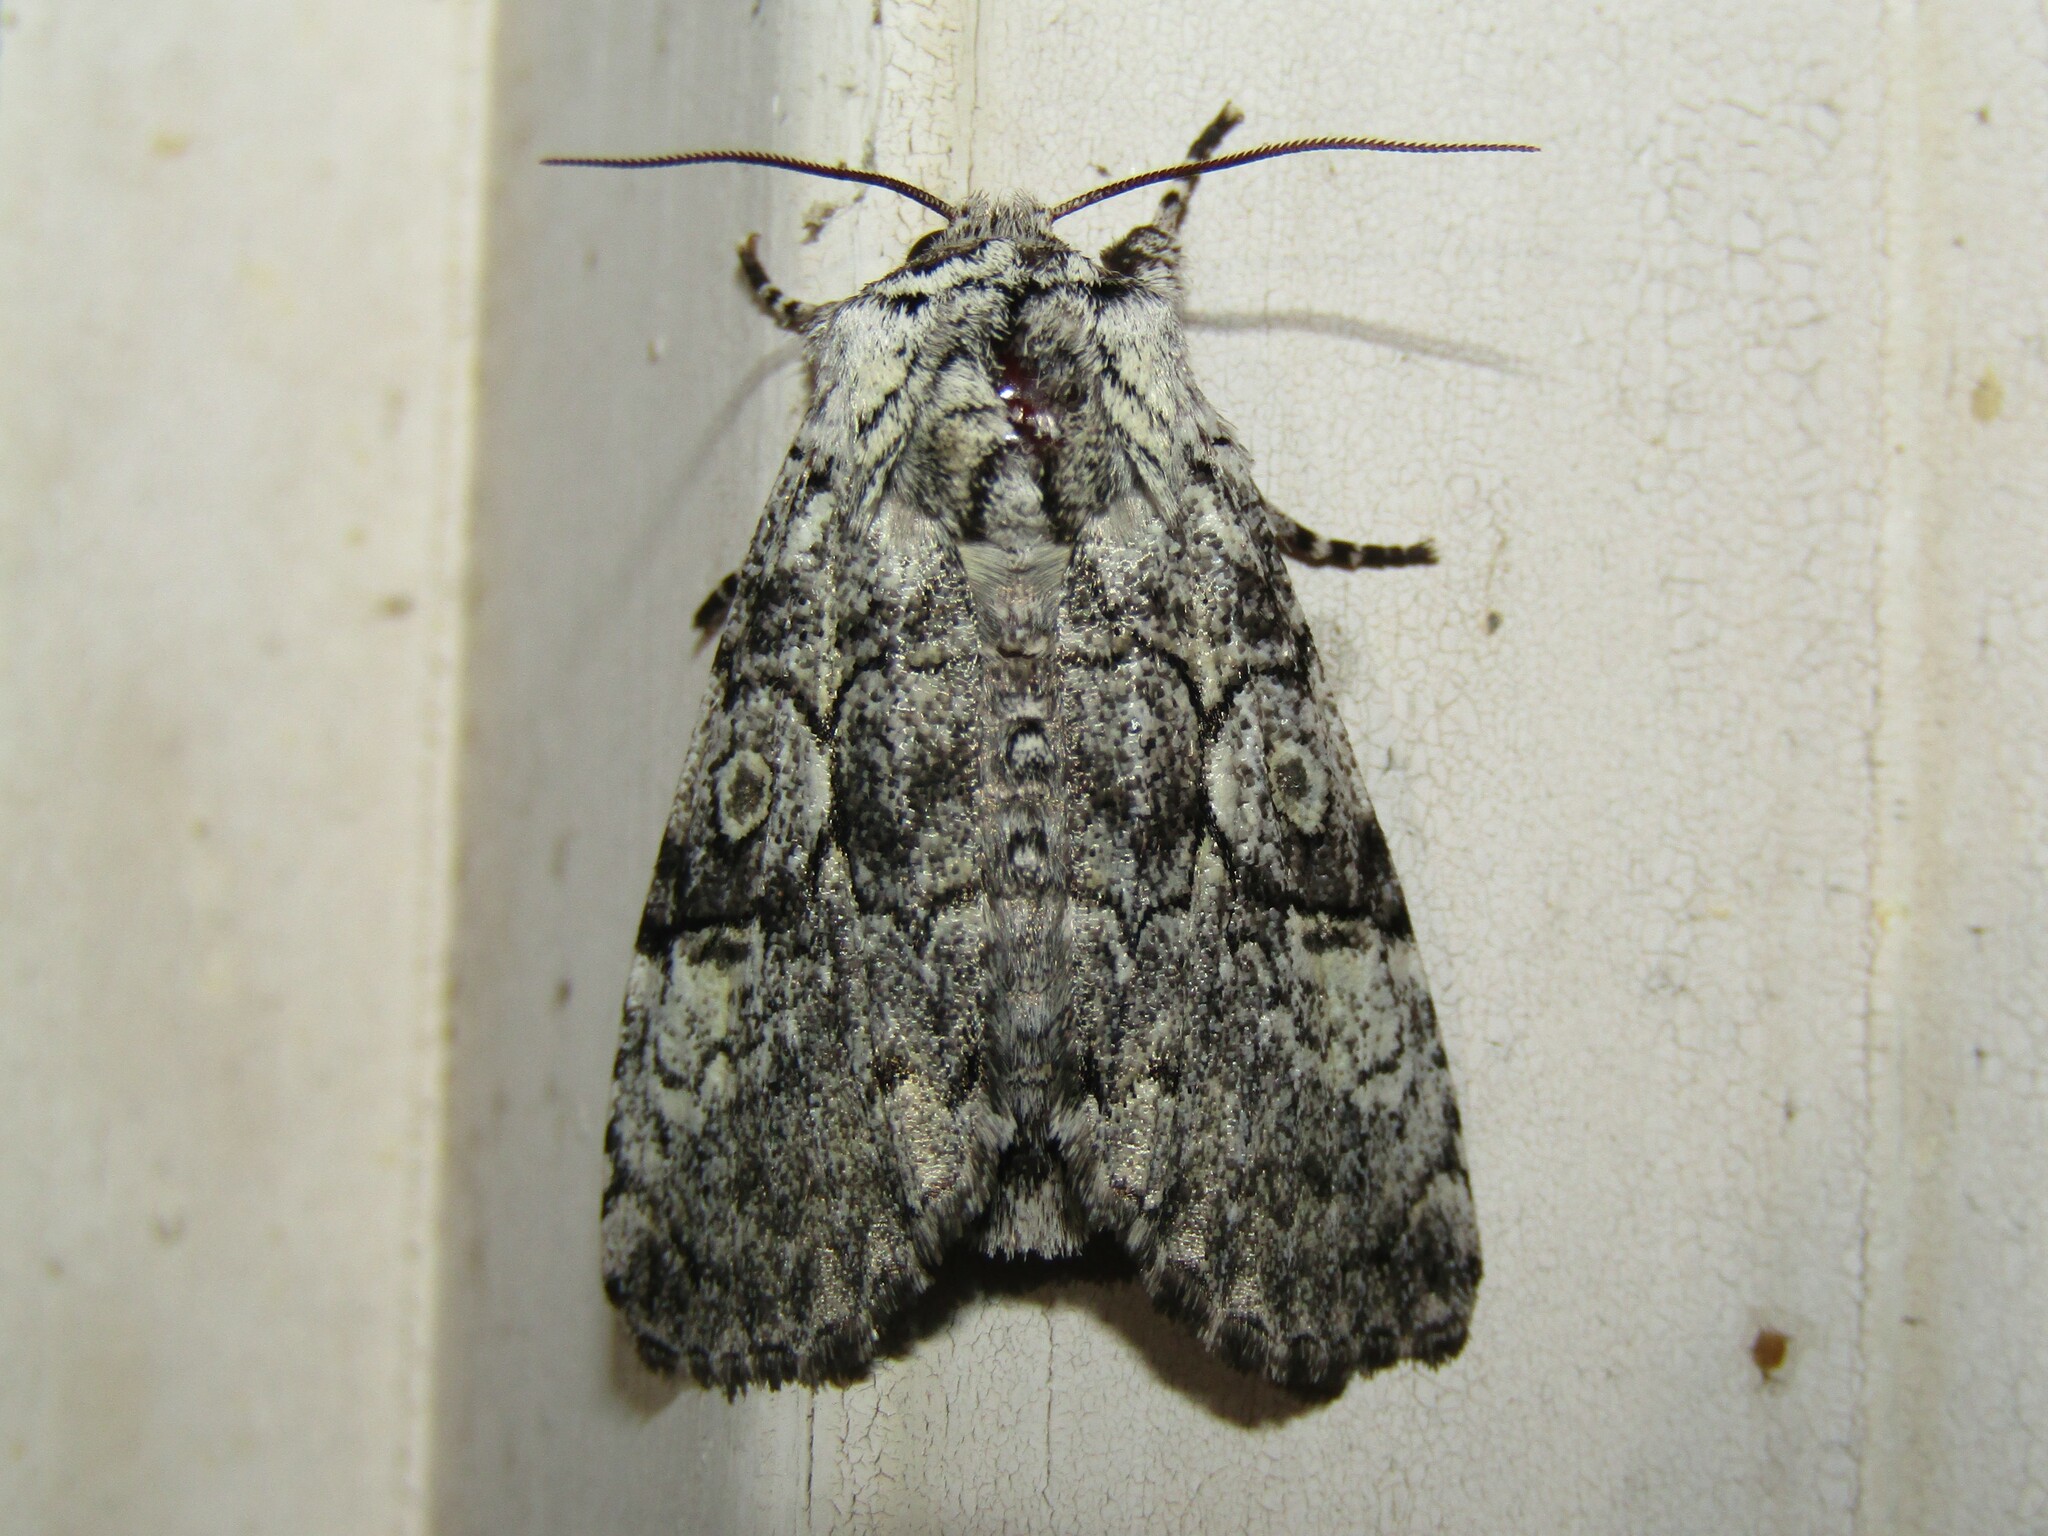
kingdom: Animalia
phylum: Arthropoda
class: Insecta
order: Lepidoptera
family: Noctuidae
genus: Charadra
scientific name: Charadra deridens
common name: Marbled tuffet
